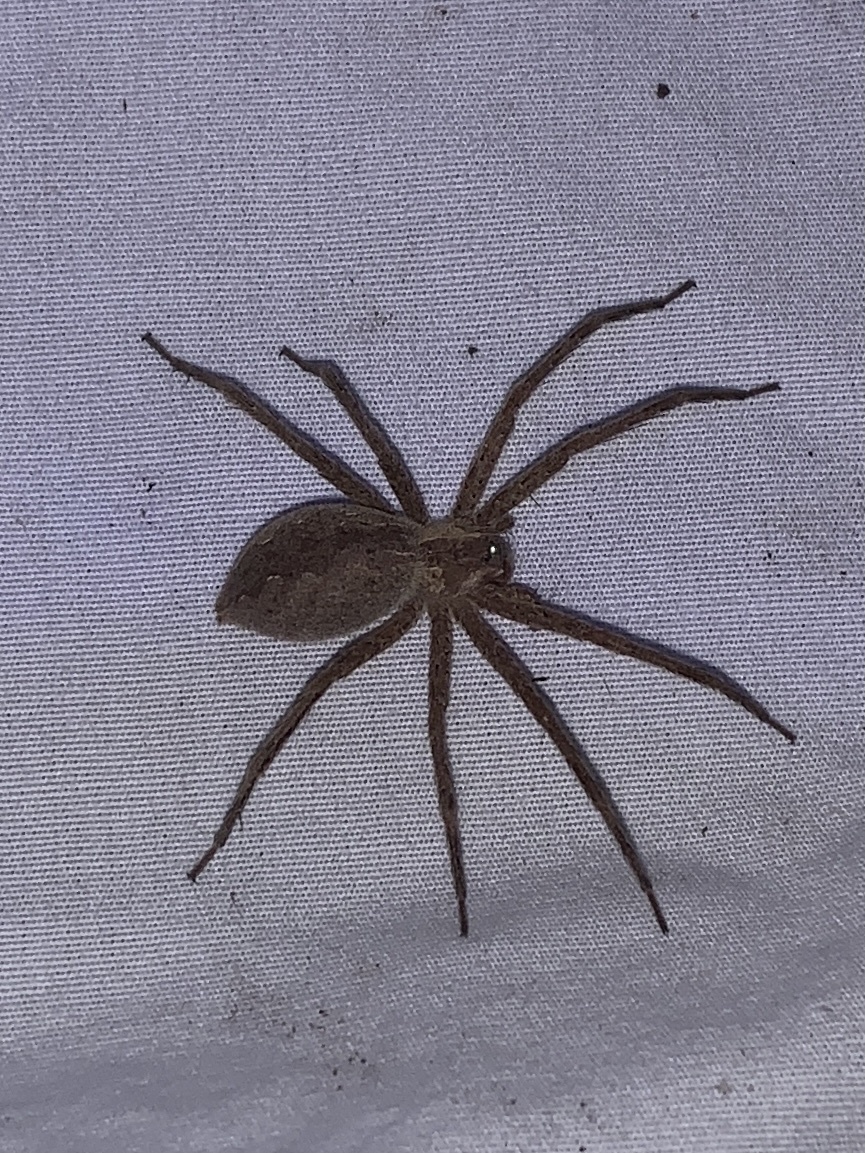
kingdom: Animalia
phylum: Arthropoda
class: Arachnida
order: Araneae
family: Pisauridae
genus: Pisaurina
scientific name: Pisaurina mira
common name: American nursery web spider
